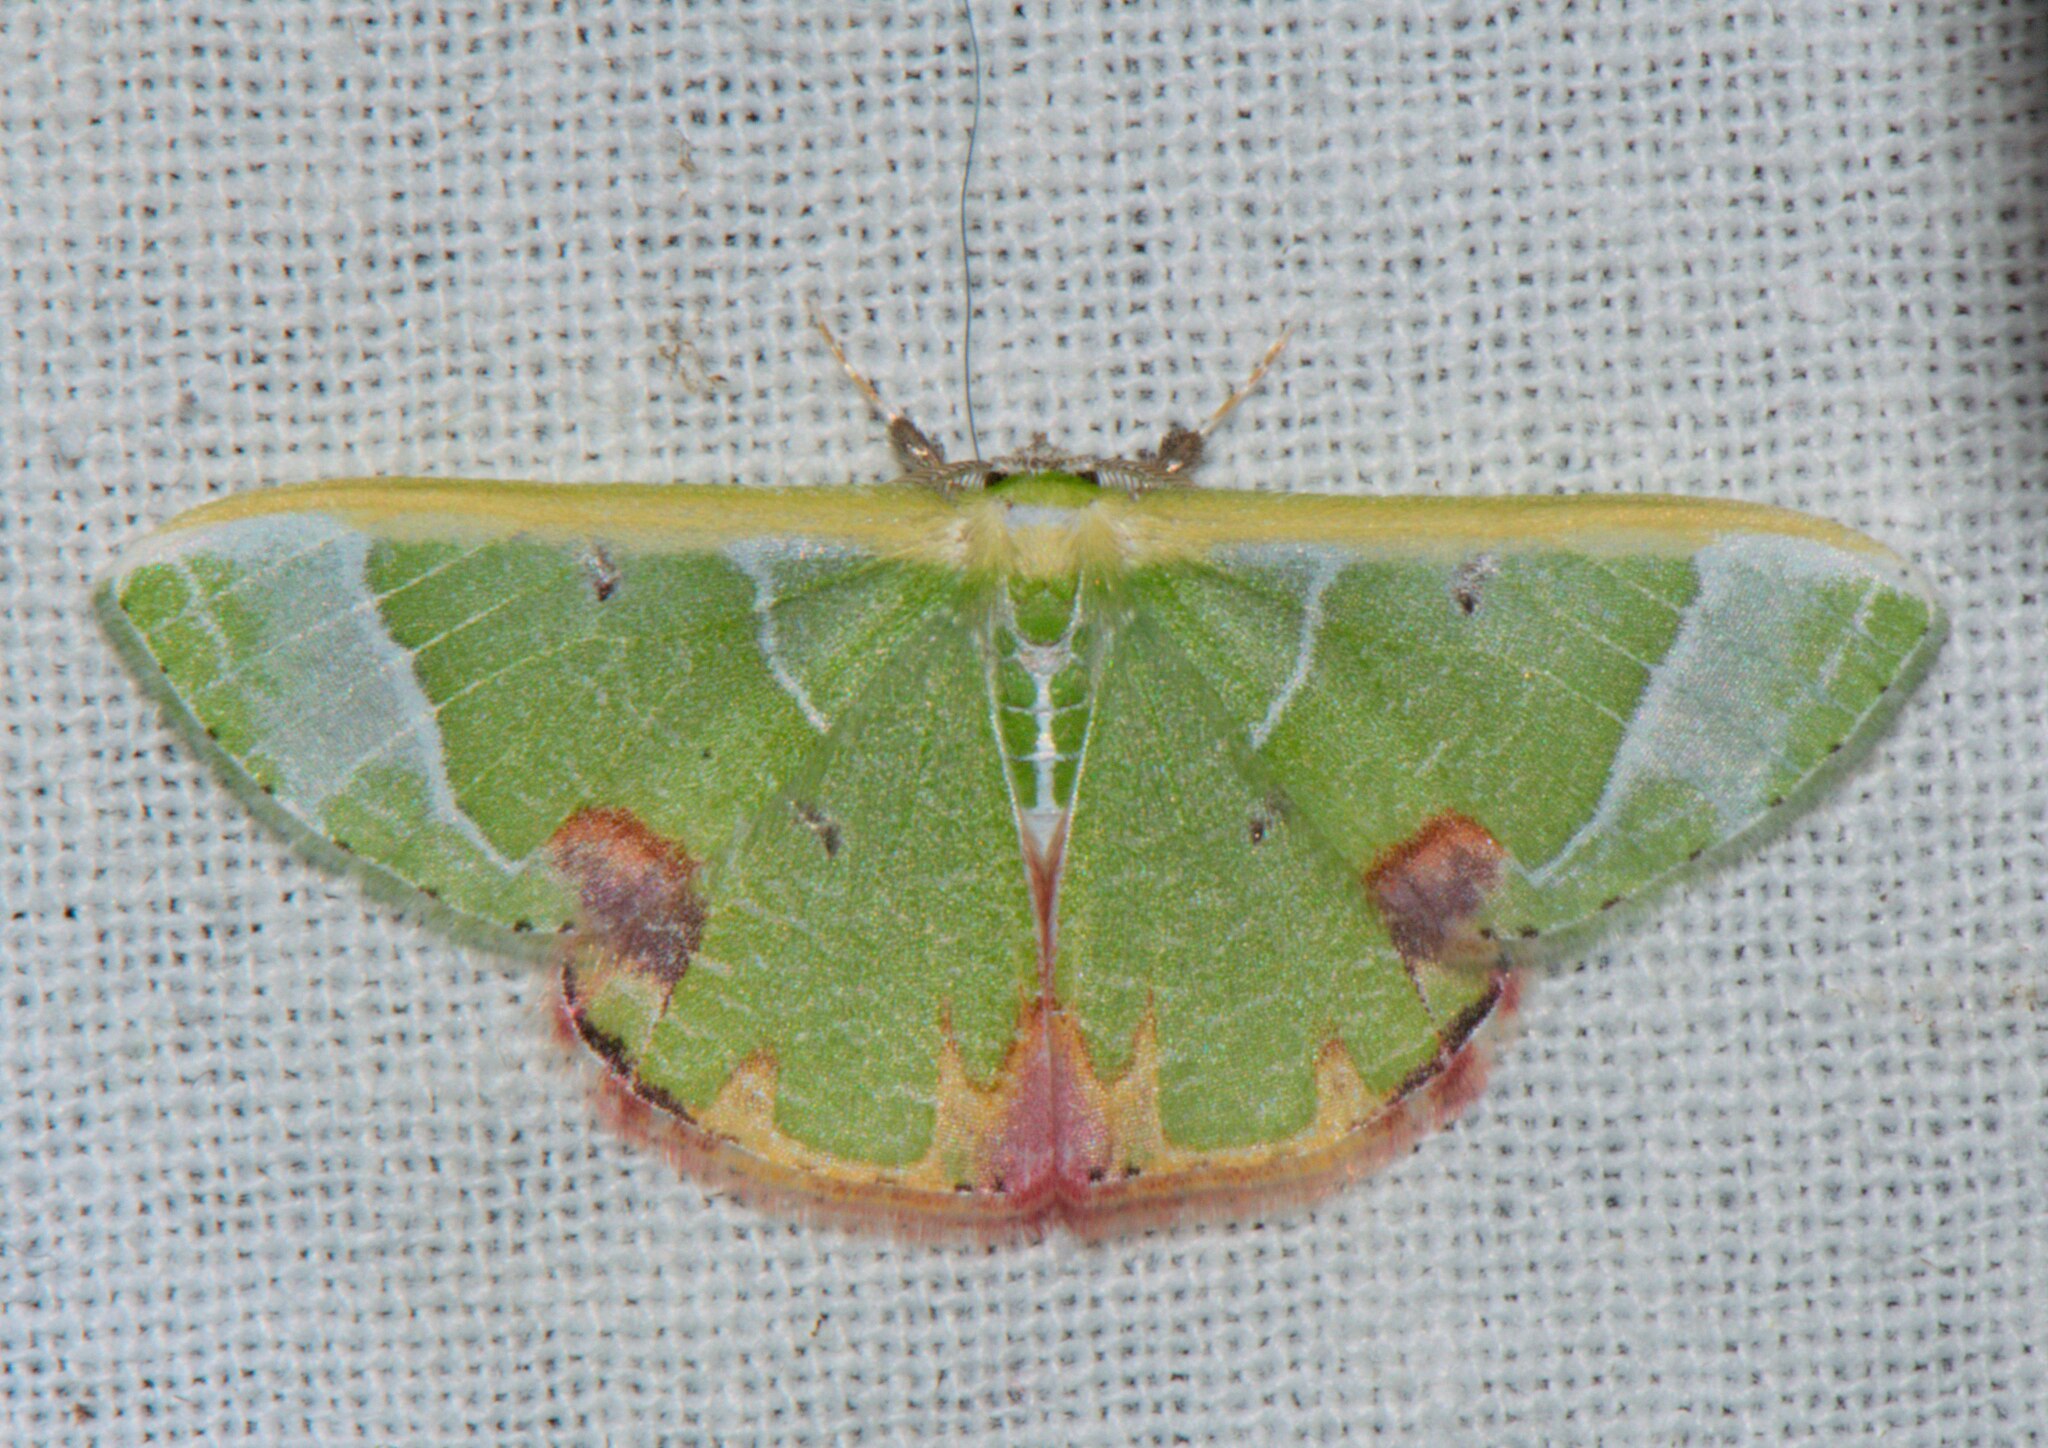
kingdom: Animalia
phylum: Arthropoda
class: Insecta
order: Lepidoptera
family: Geometridae
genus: Comibaena
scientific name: Comibaena pictipennis
